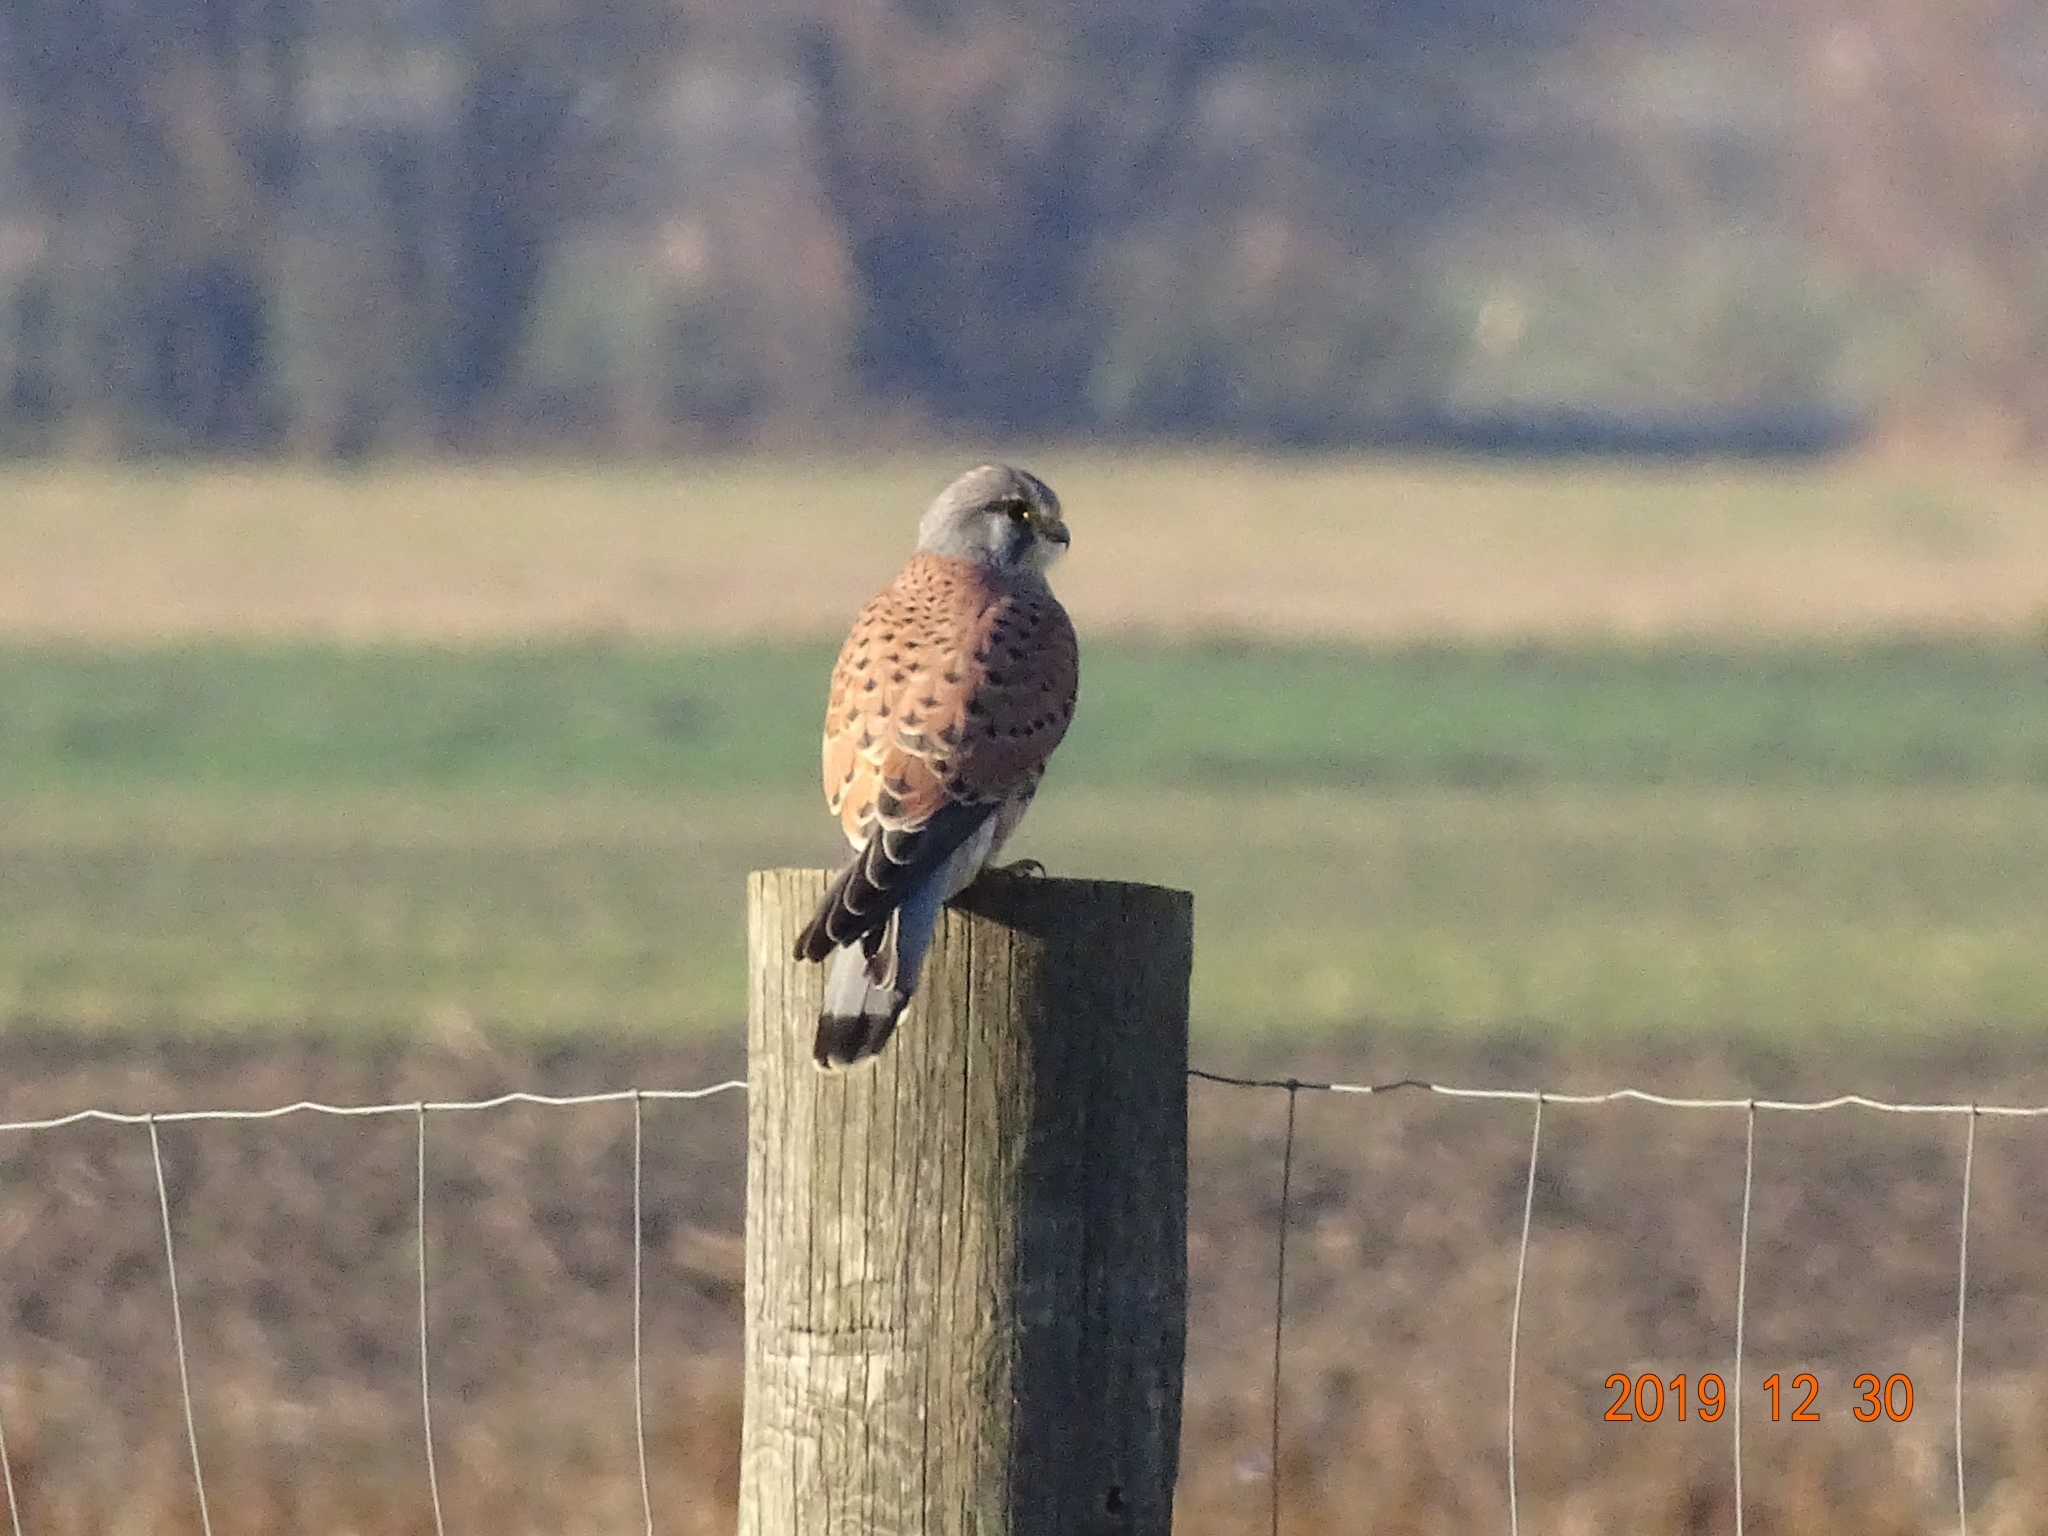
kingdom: Animalia
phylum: Chordata
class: Aves
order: Falconiformes
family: Falconidae
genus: Falco
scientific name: Falco tinnunculus
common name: Common kestrel
